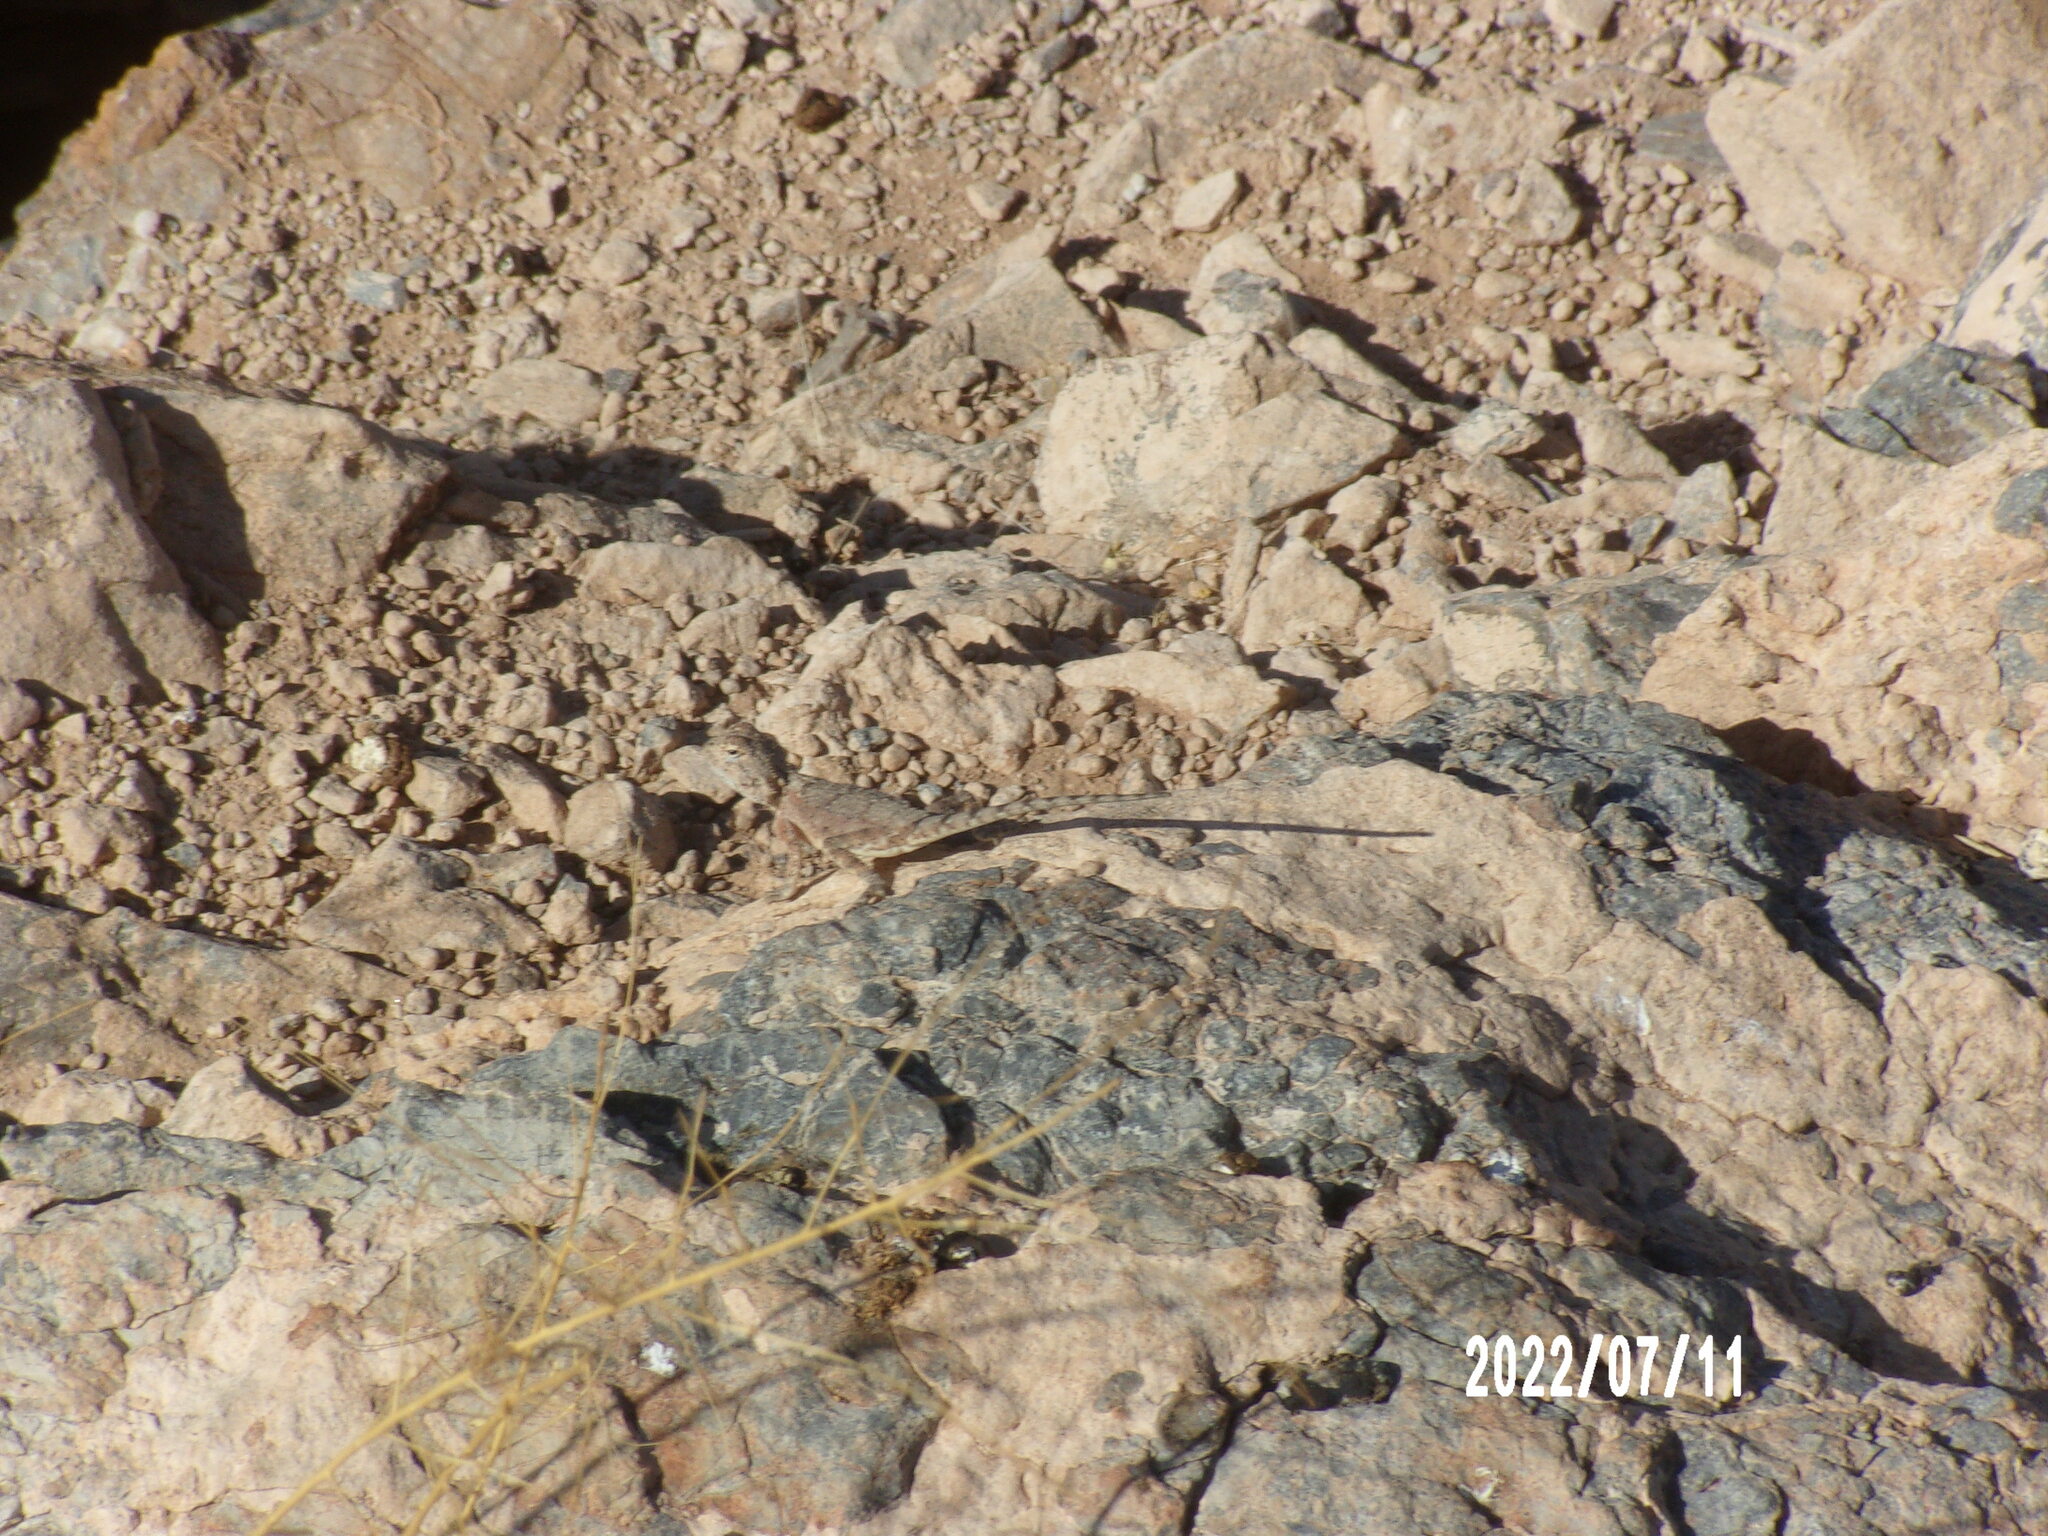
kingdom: Animalia
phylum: Chordata
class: Squamata
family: Agamidae
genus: Agama
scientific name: Agama anchietae
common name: Anchieta's agama
